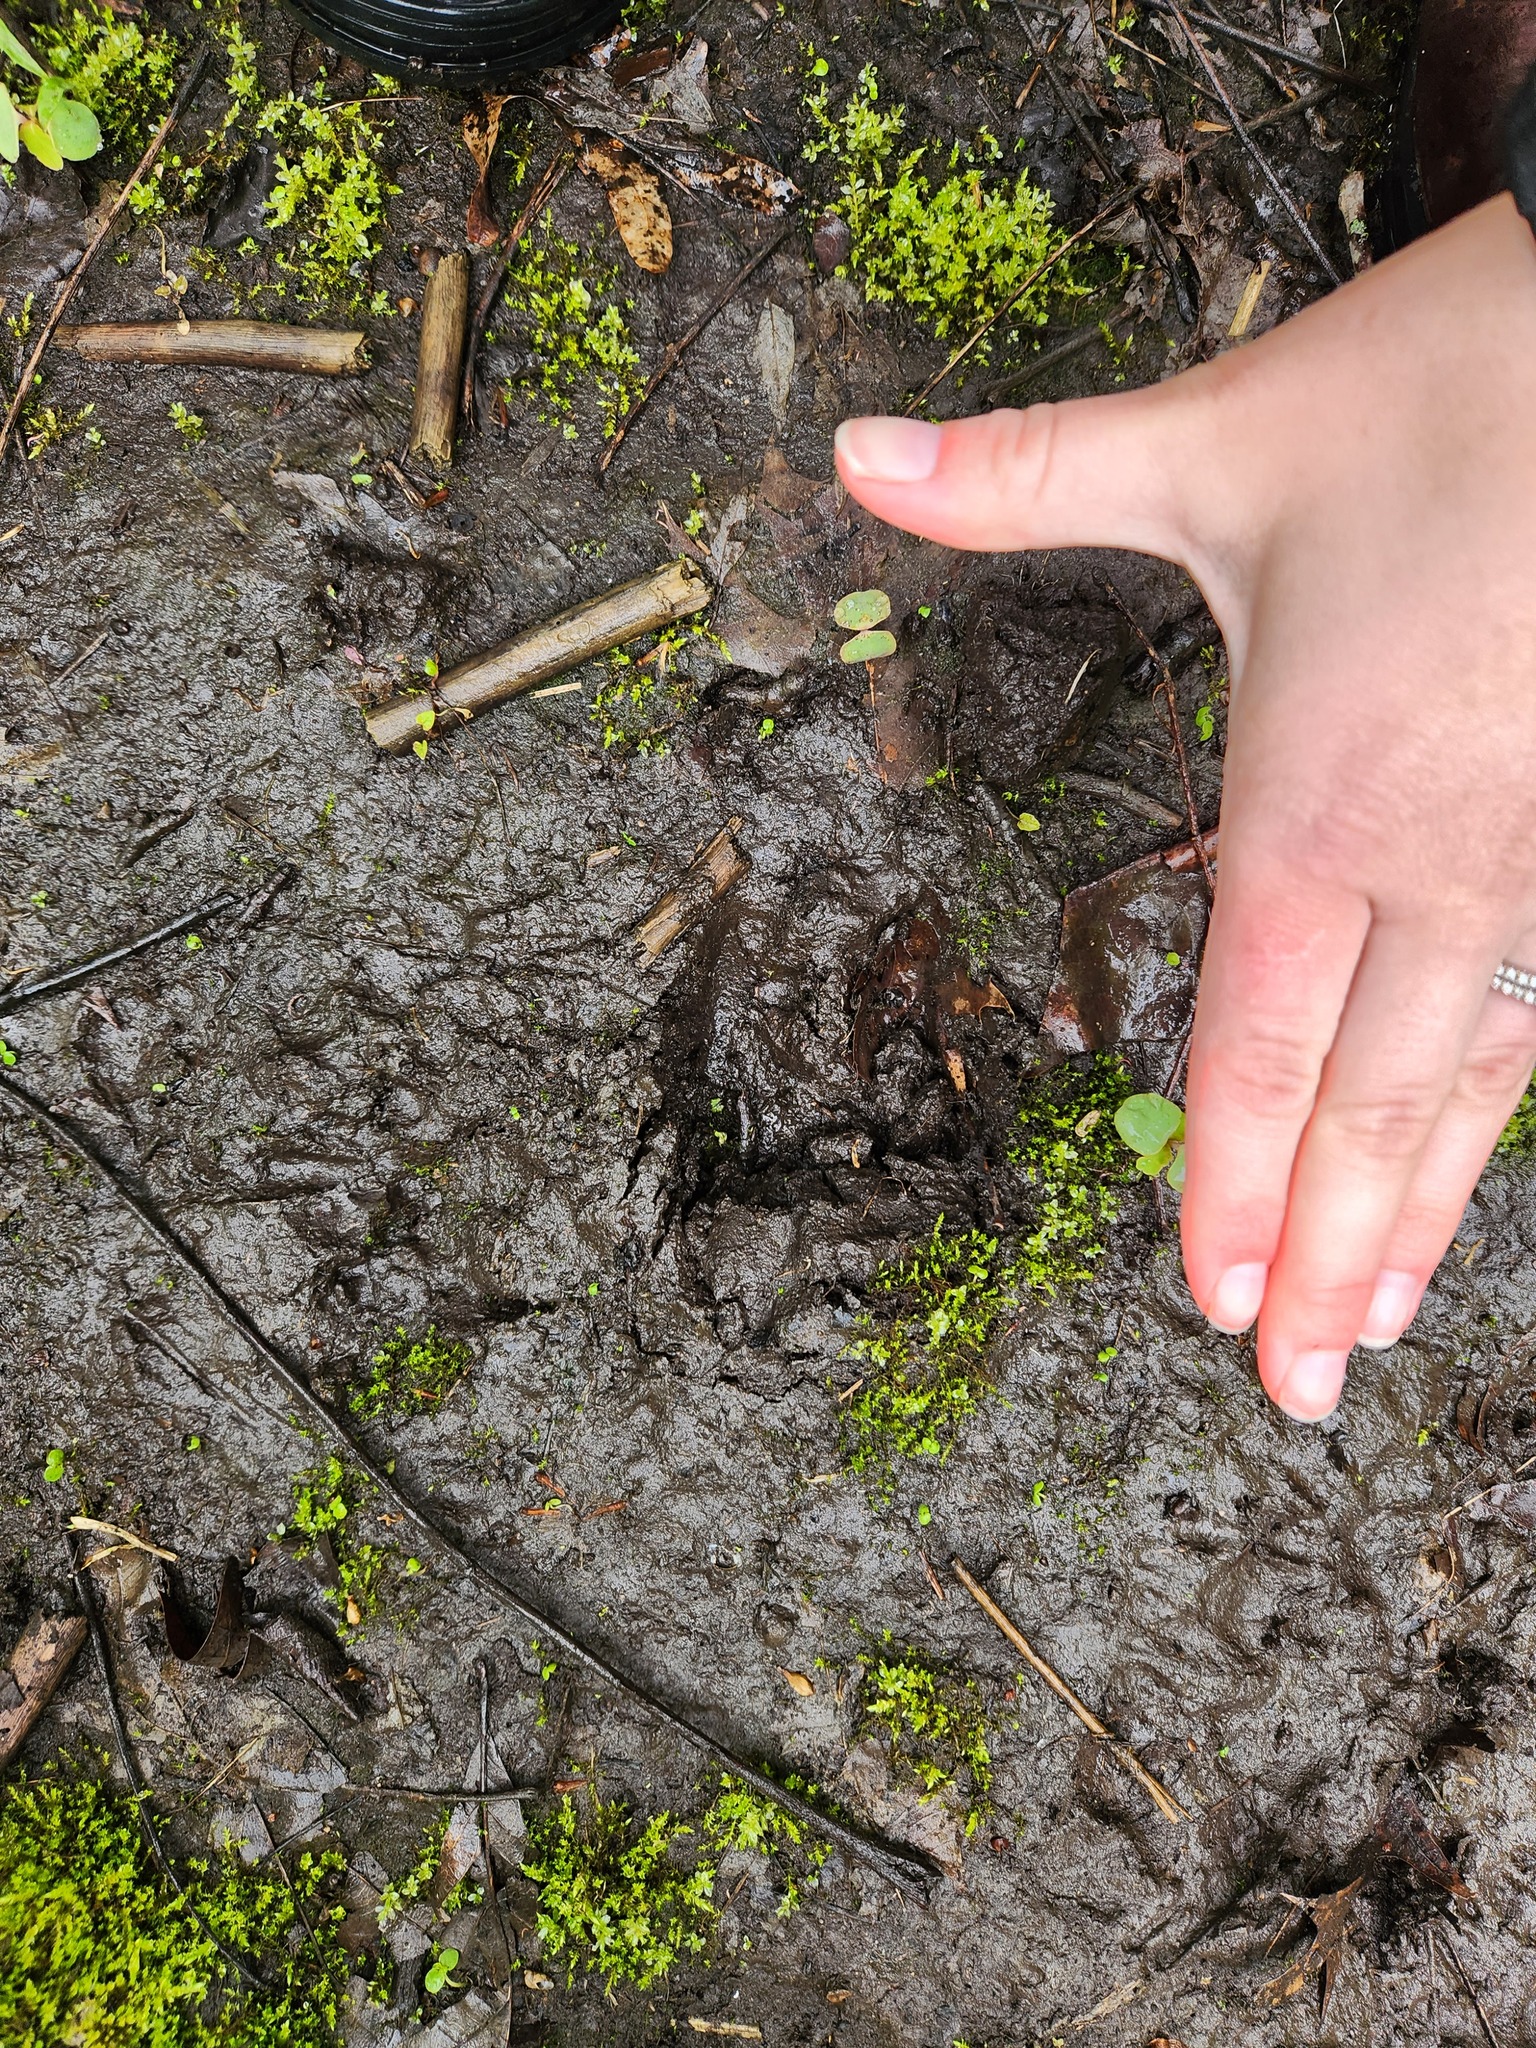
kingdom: Animalia
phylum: Chordata
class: Mammalia
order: Artiodactyla
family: Cervidae
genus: Odocoileus
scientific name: Odocoileus virginianus
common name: White-tailed deer
